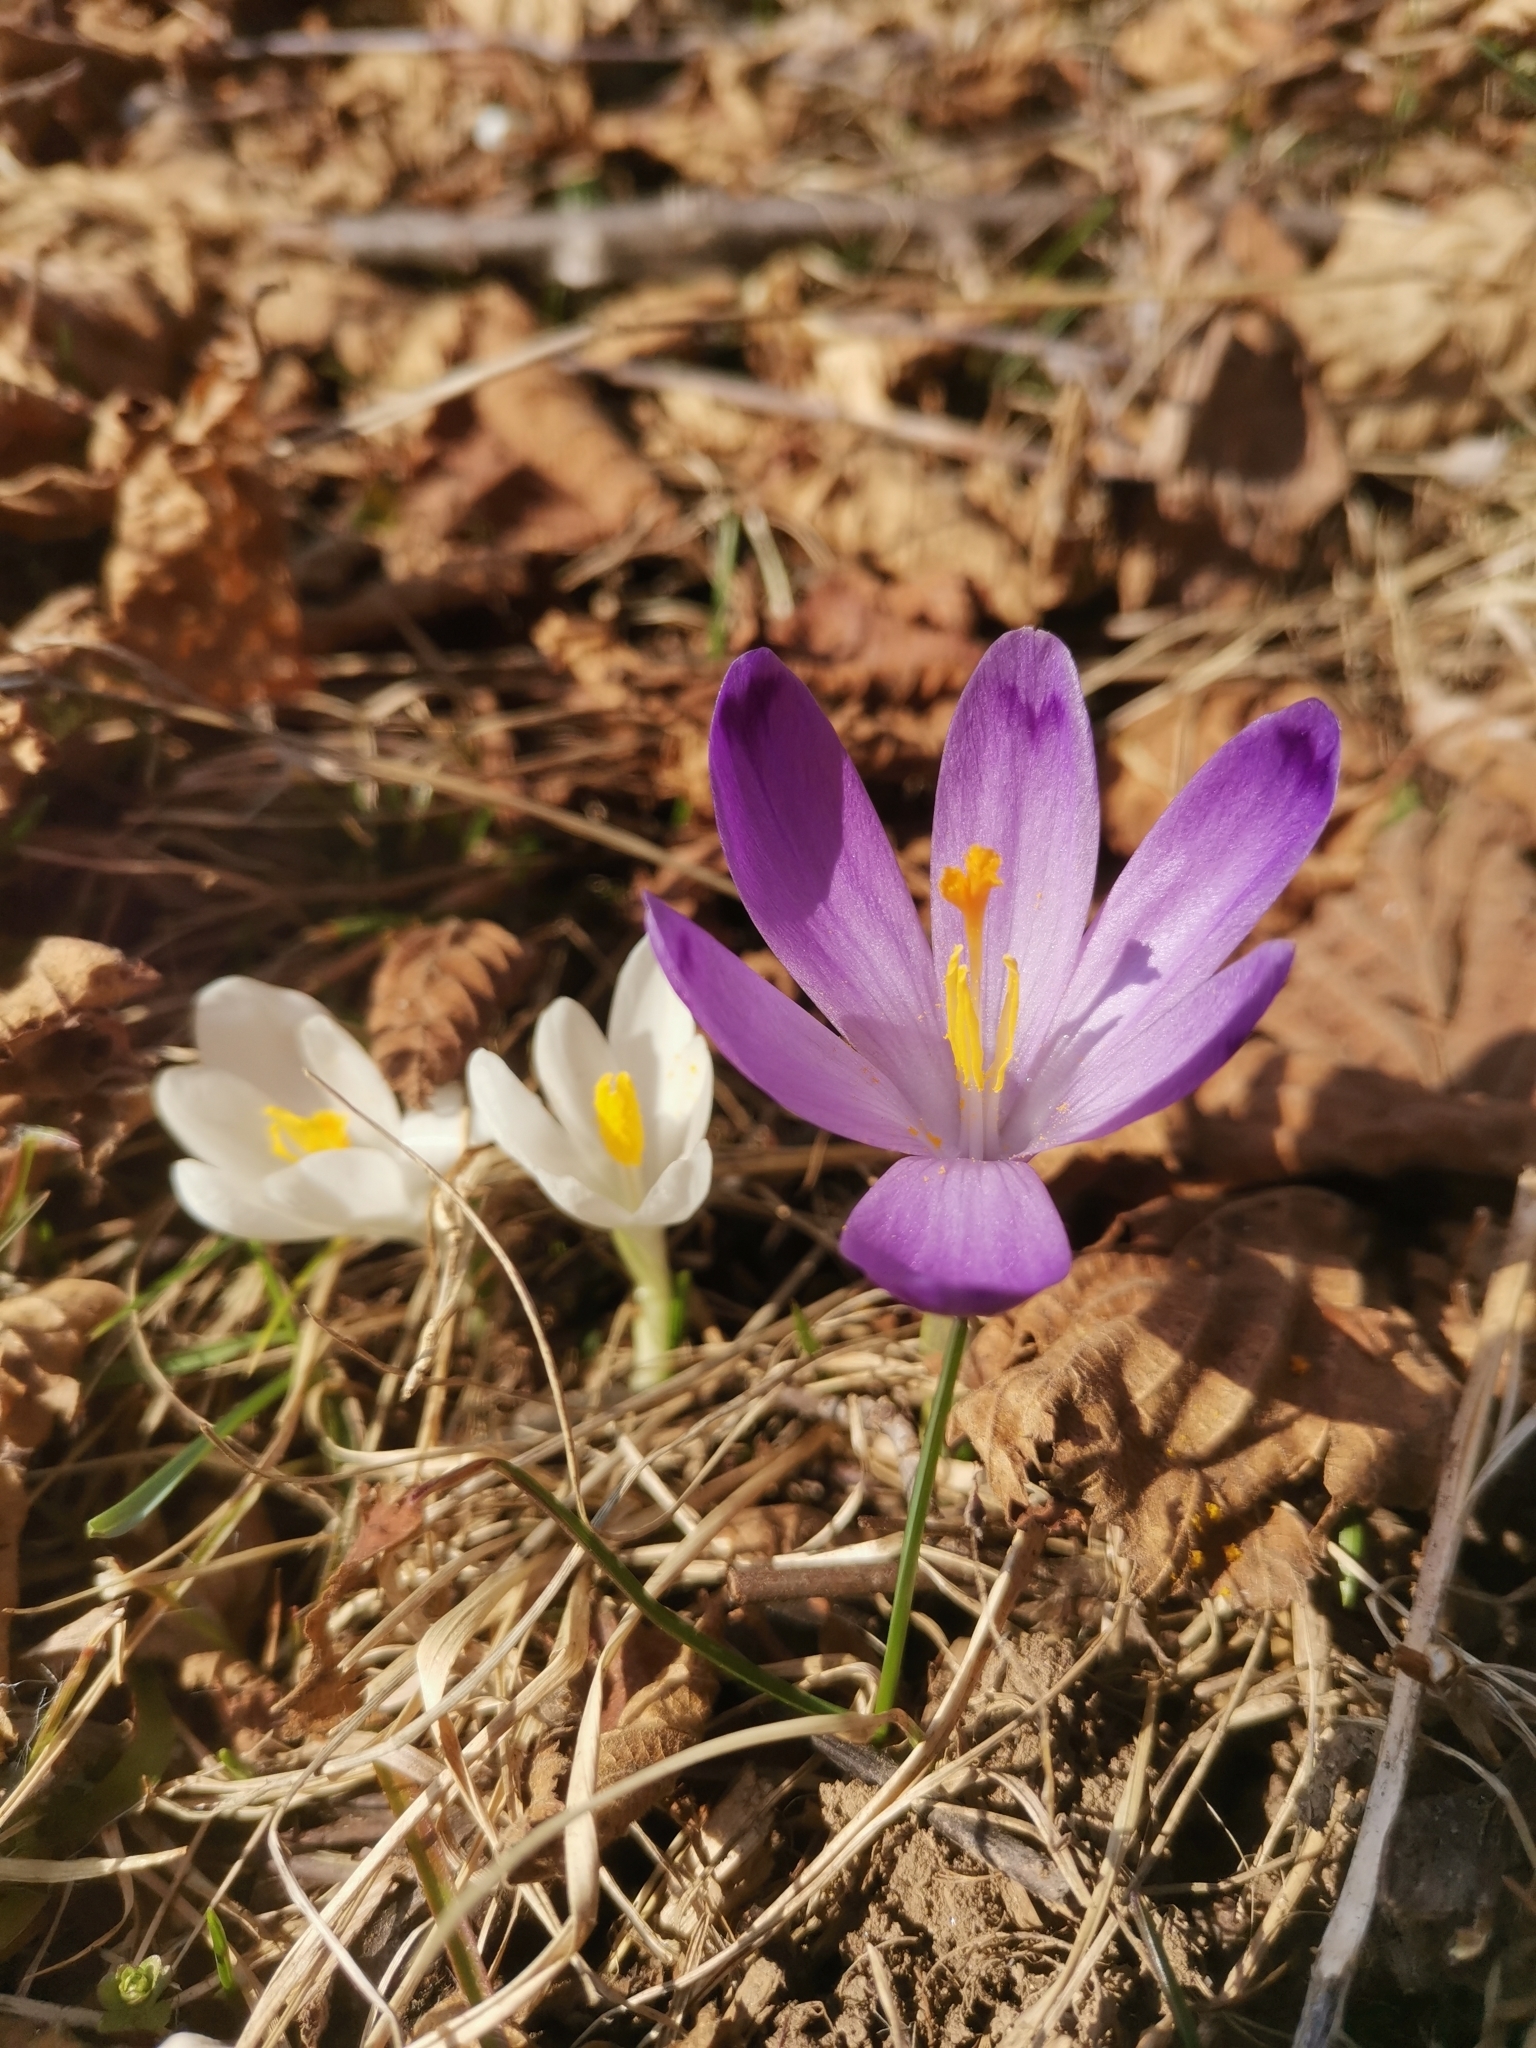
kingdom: Plantae
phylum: Tracheophyta
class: Liliopsida
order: Asparagales
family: Iridaceae
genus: Crocus
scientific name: Crocus heuffelianus
